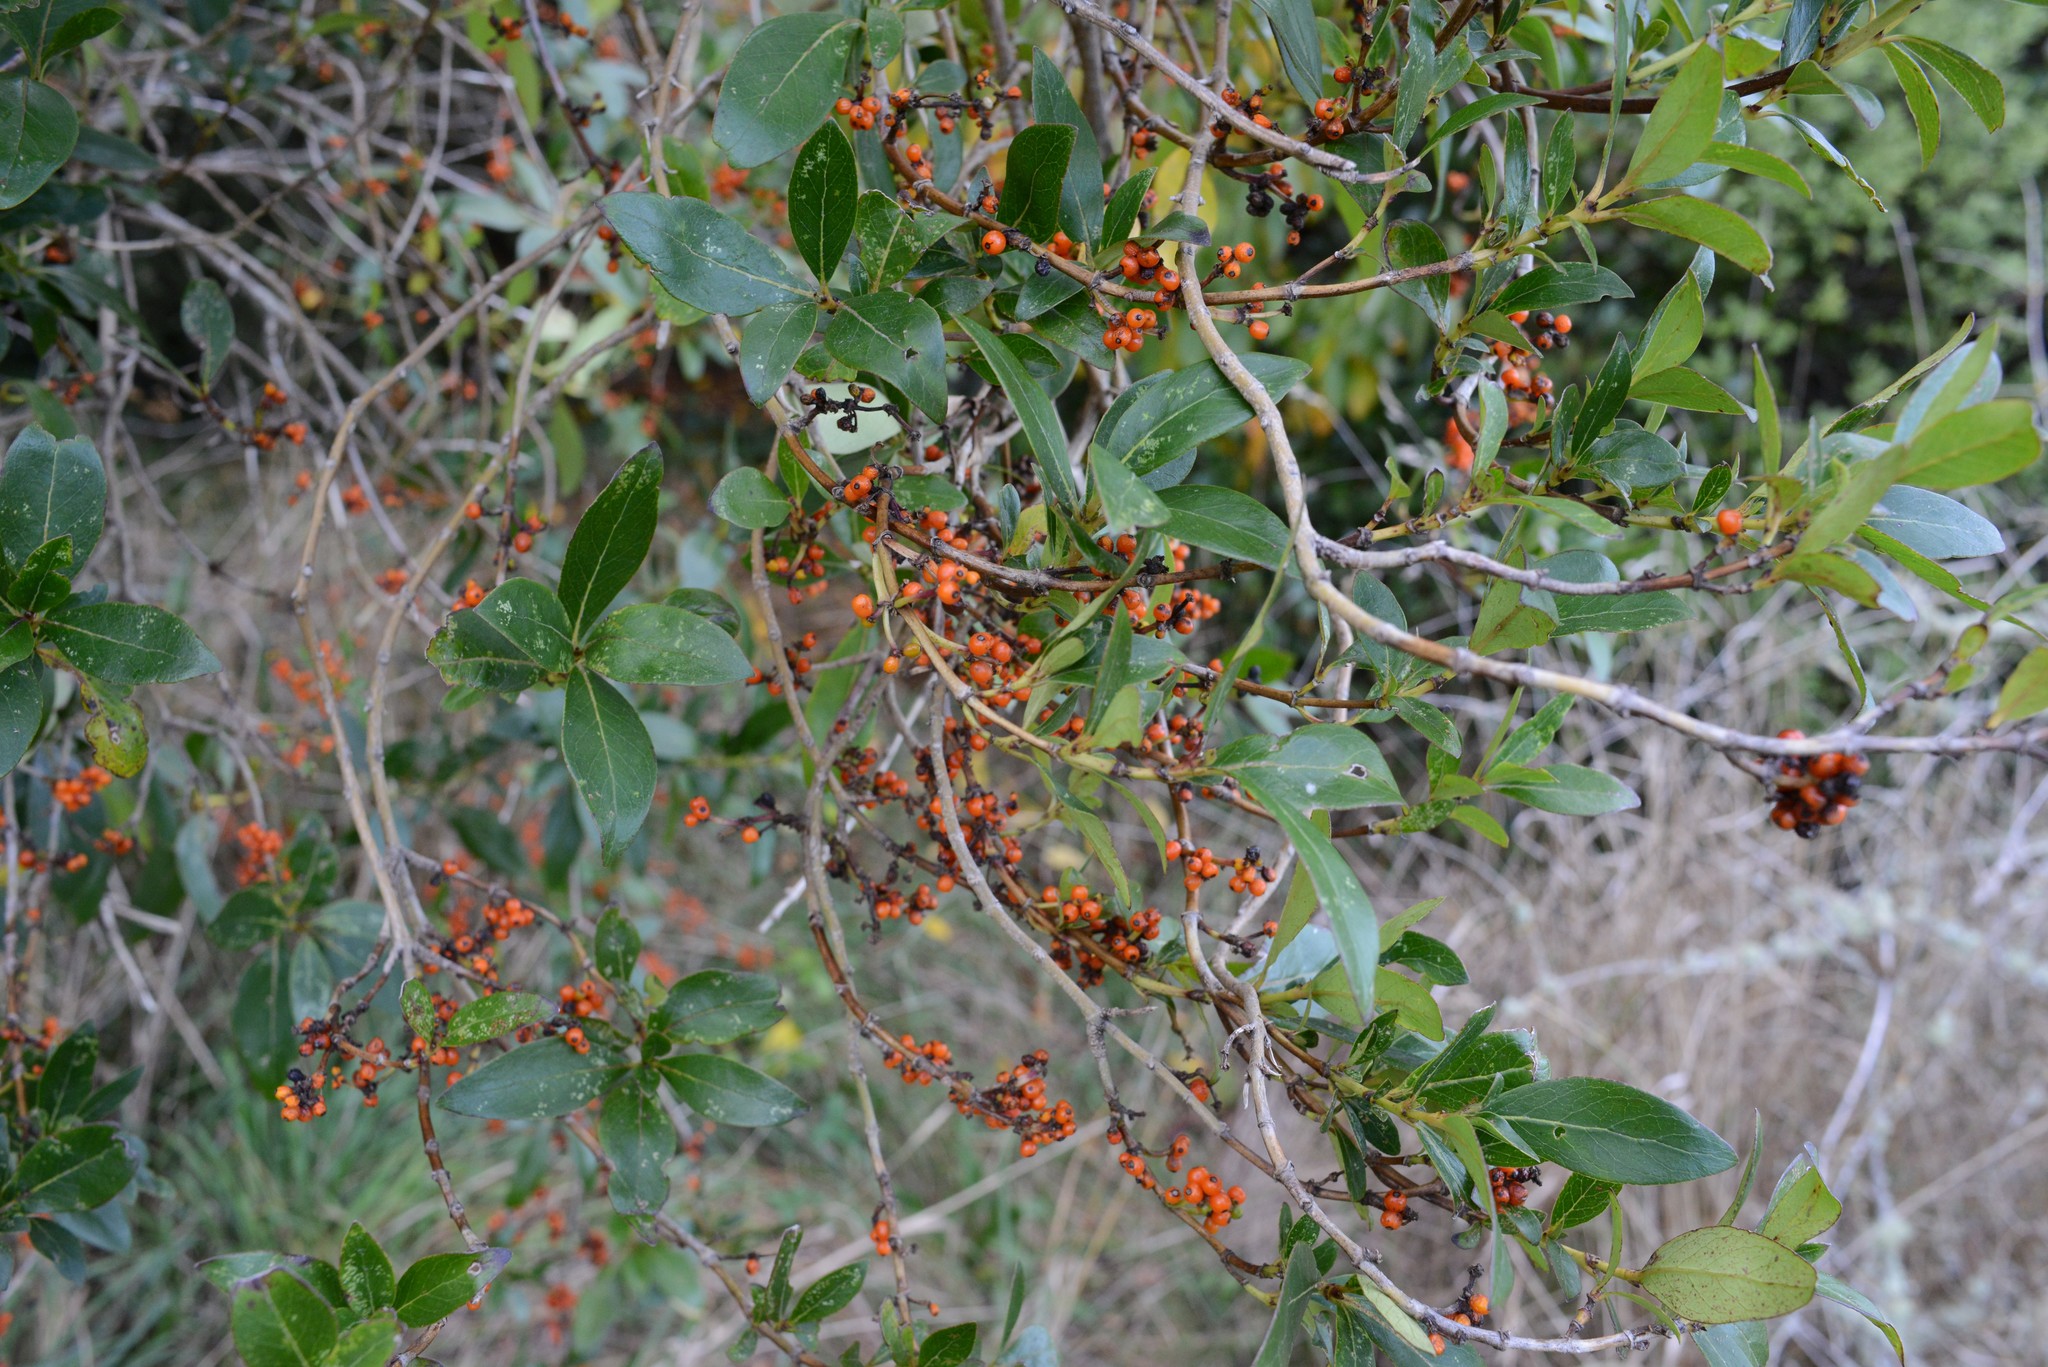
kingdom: Plantae
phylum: Tracheophyta
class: Magnoliopsida
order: Gentianales
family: Rubiaceae
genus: Coprosma
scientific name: Coprosma robusta
